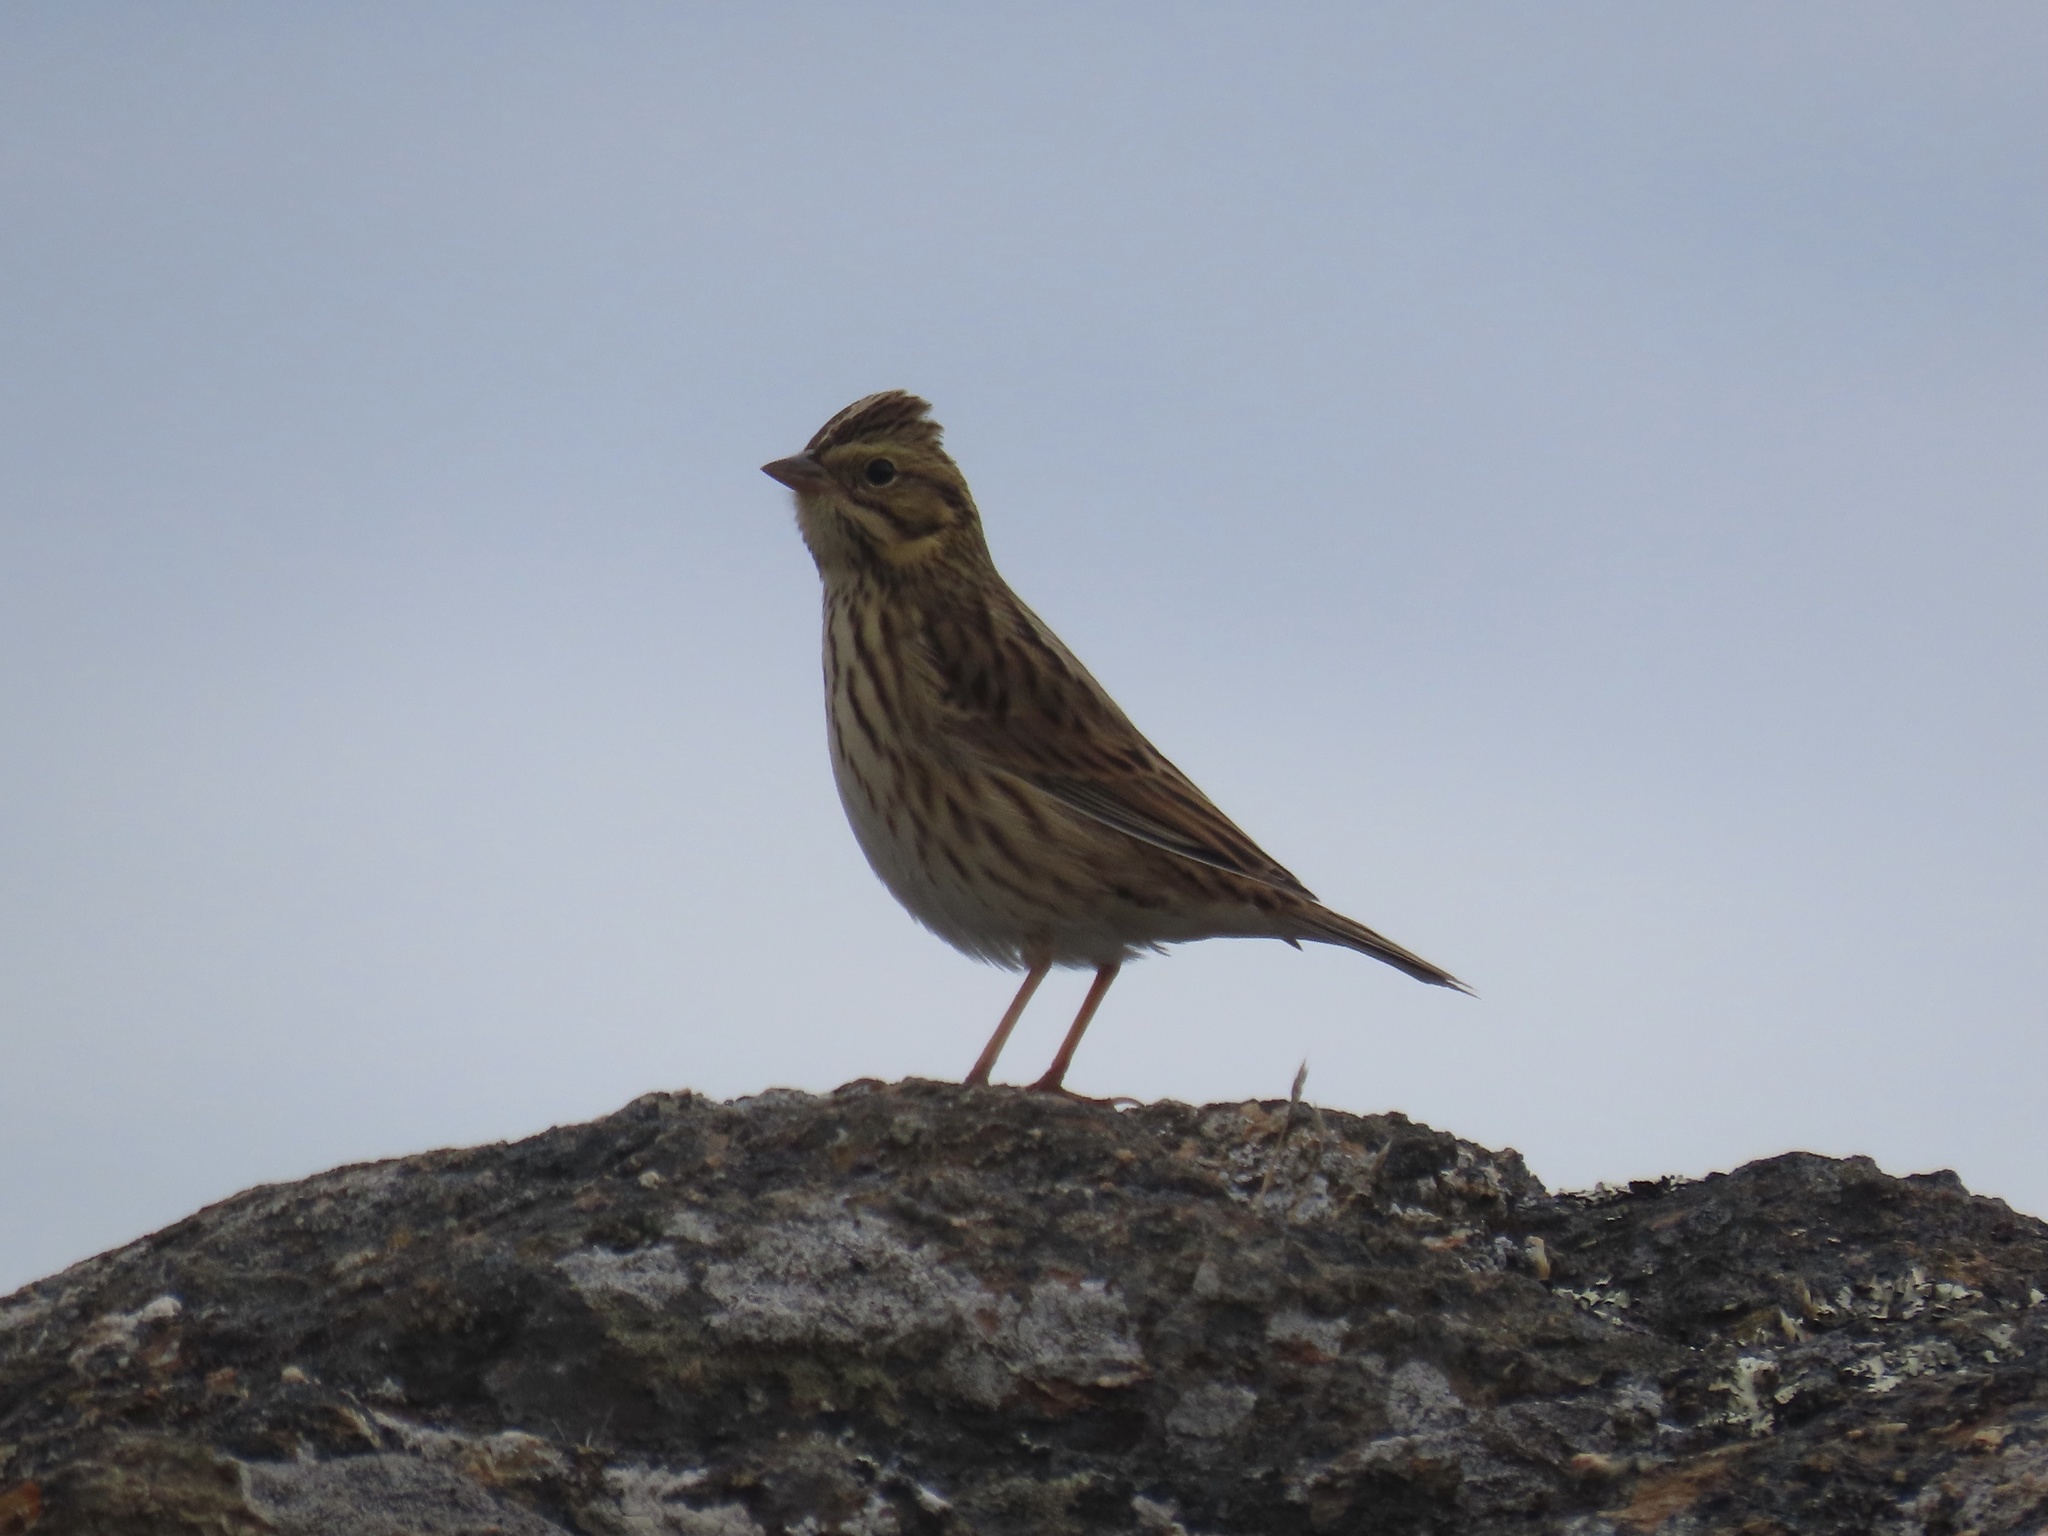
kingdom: Animalia
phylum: Chordata
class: Aves
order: Passeriformes
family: Passerellidae
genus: Passerculus
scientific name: Passerculus sandwichensis
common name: Savannah sparrow
